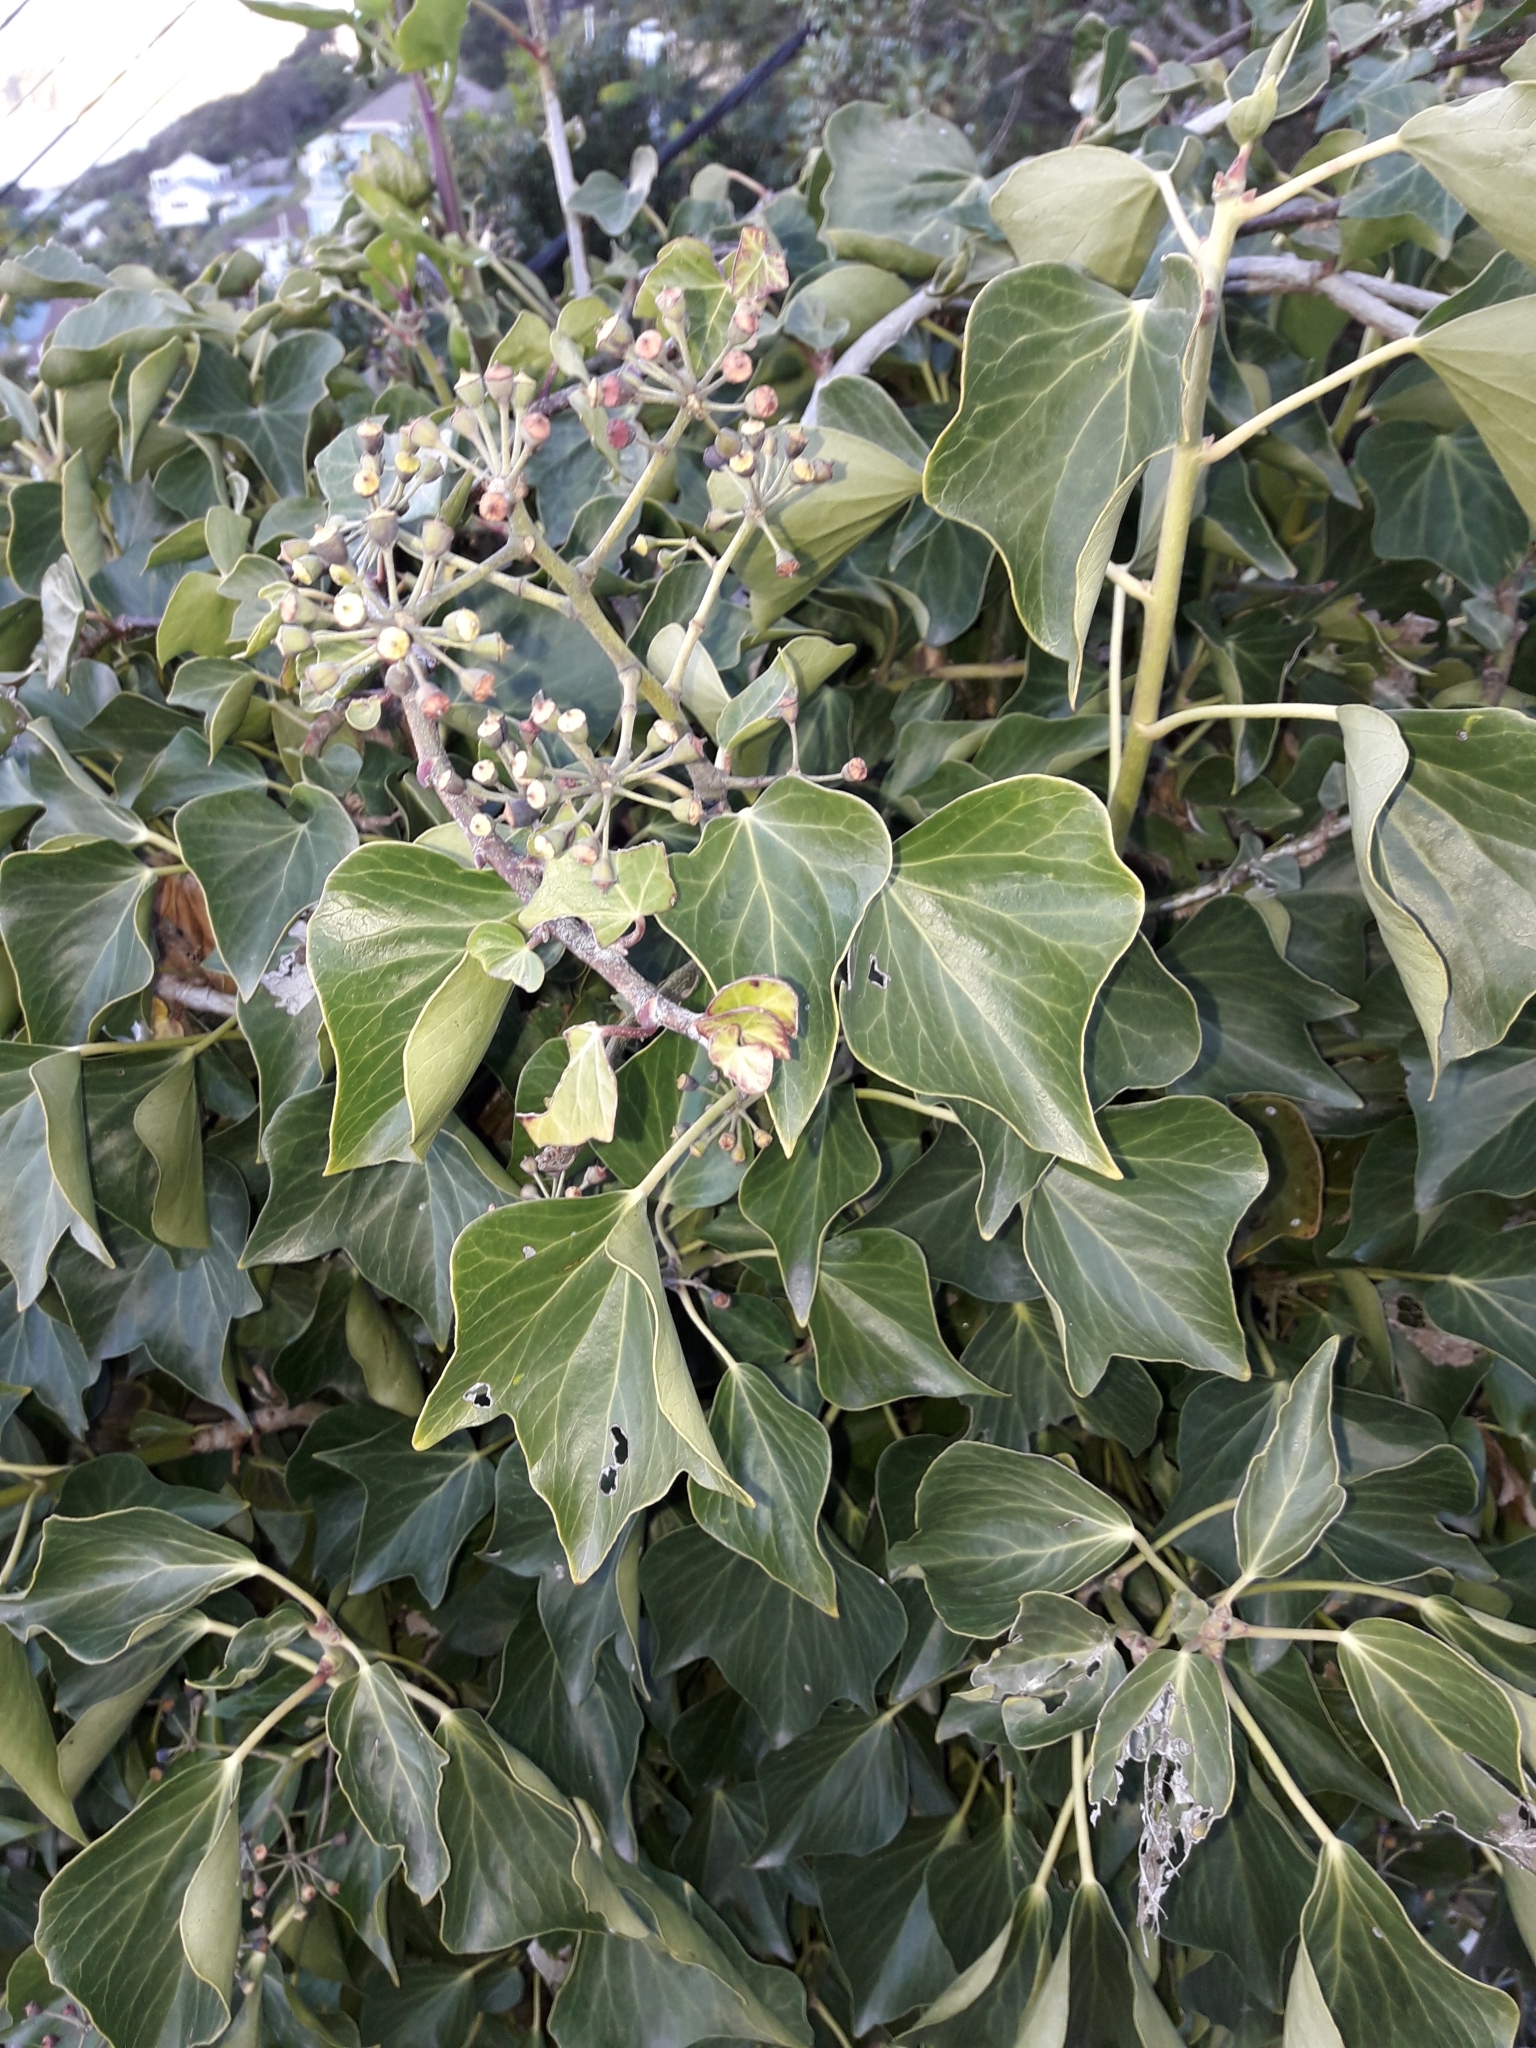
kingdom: Plantae
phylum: Tracheophyta
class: Magnoliopsida
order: Apiales
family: Araliaceae
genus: Hedera
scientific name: Hedera helix
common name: Ivy
